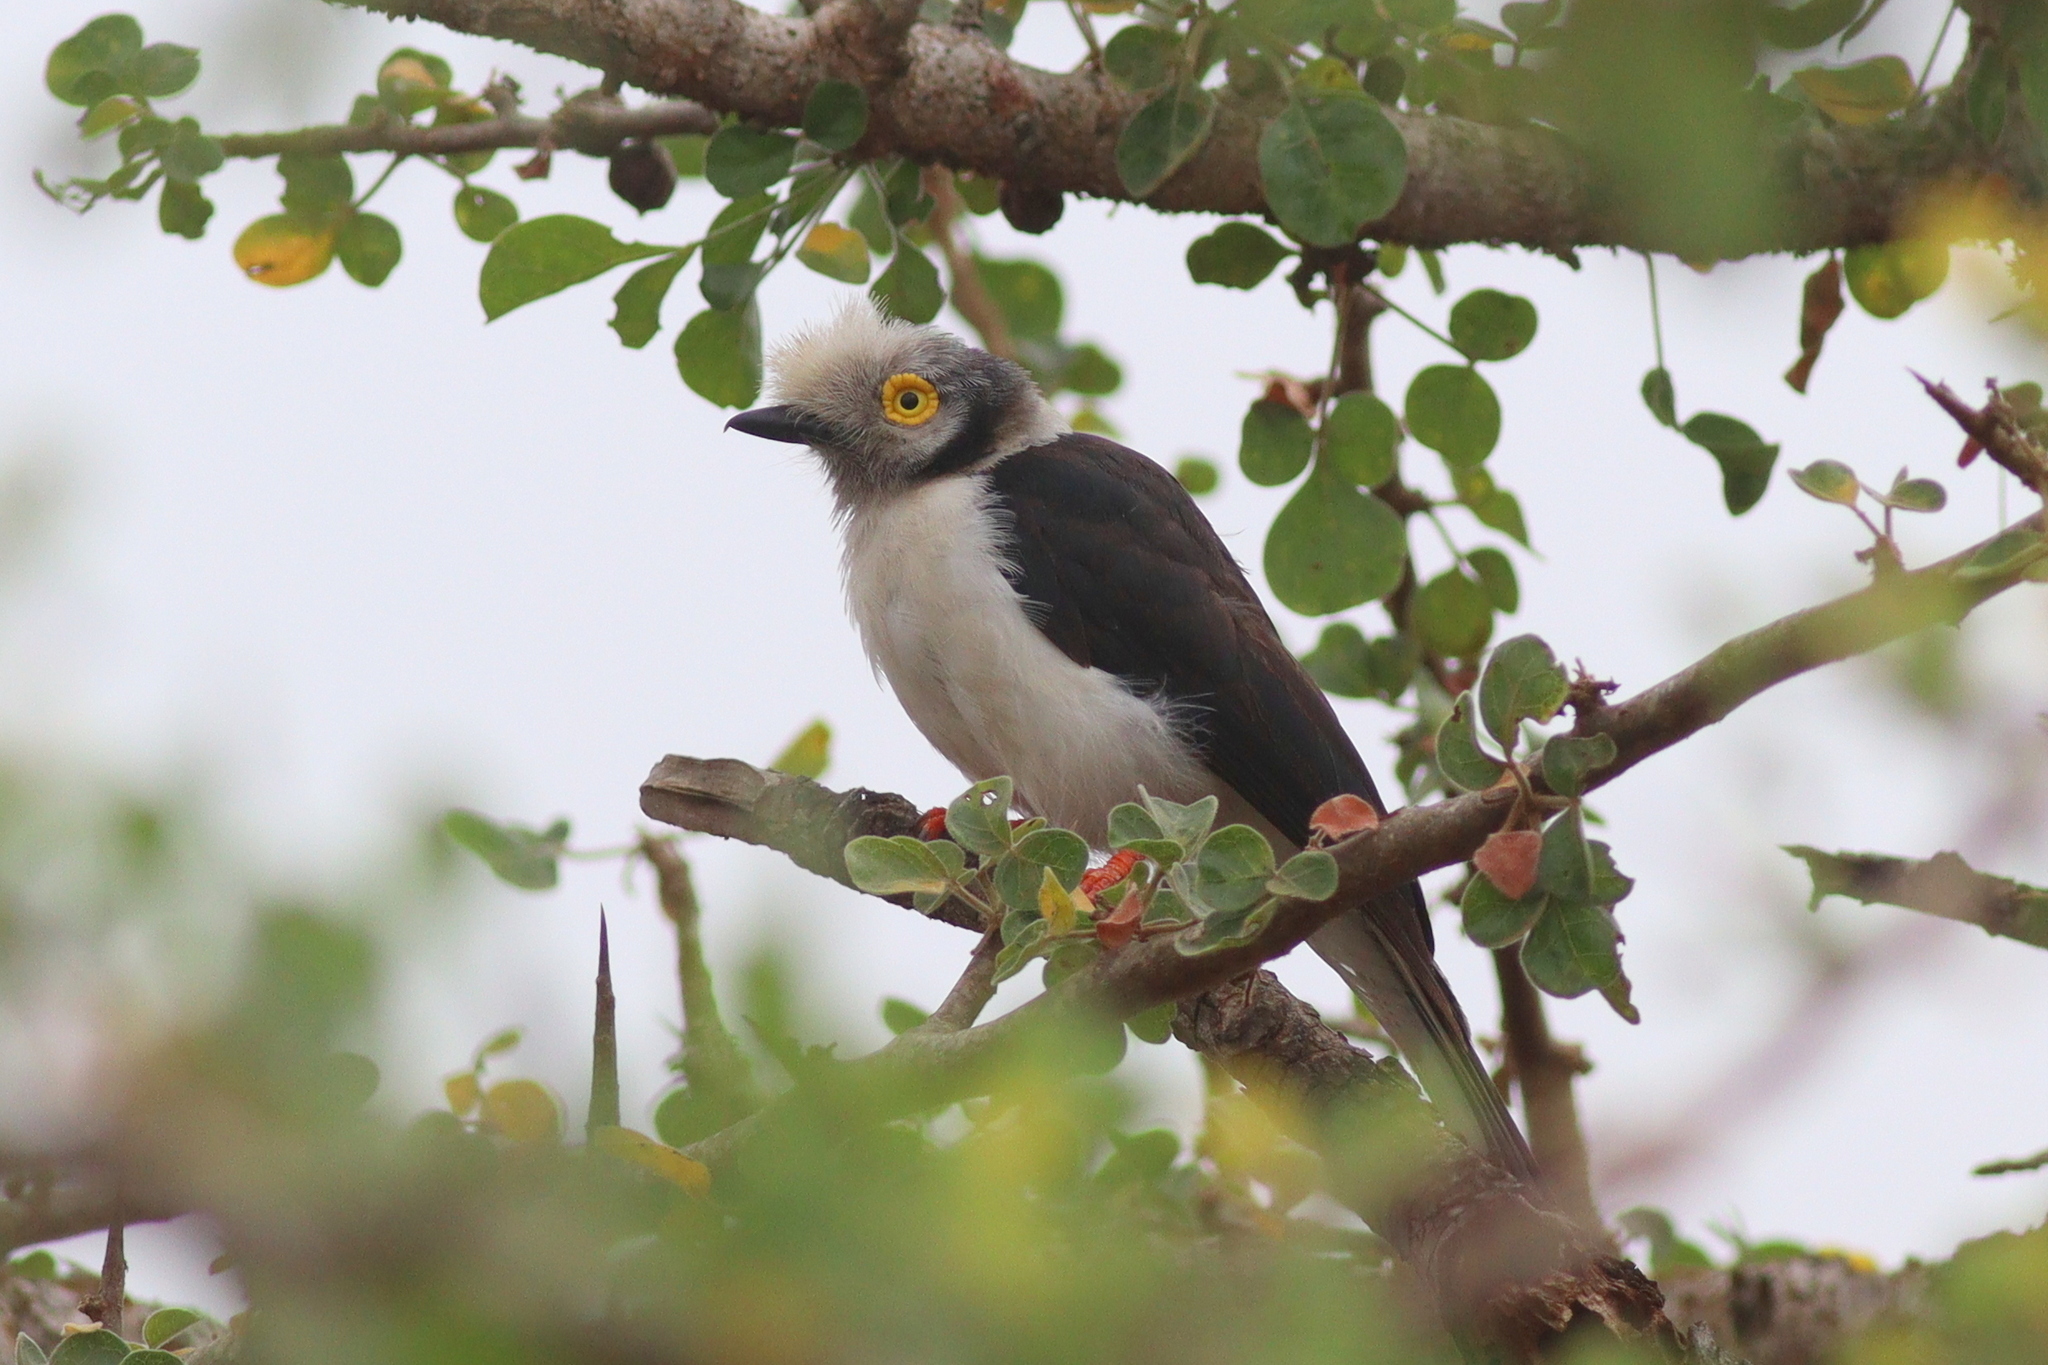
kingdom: Animalia
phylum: Chordata
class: Aves
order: Passeriformes
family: Prionopidae
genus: Prionops
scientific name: Prionops plumatus
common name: White-crested helmetshrike
